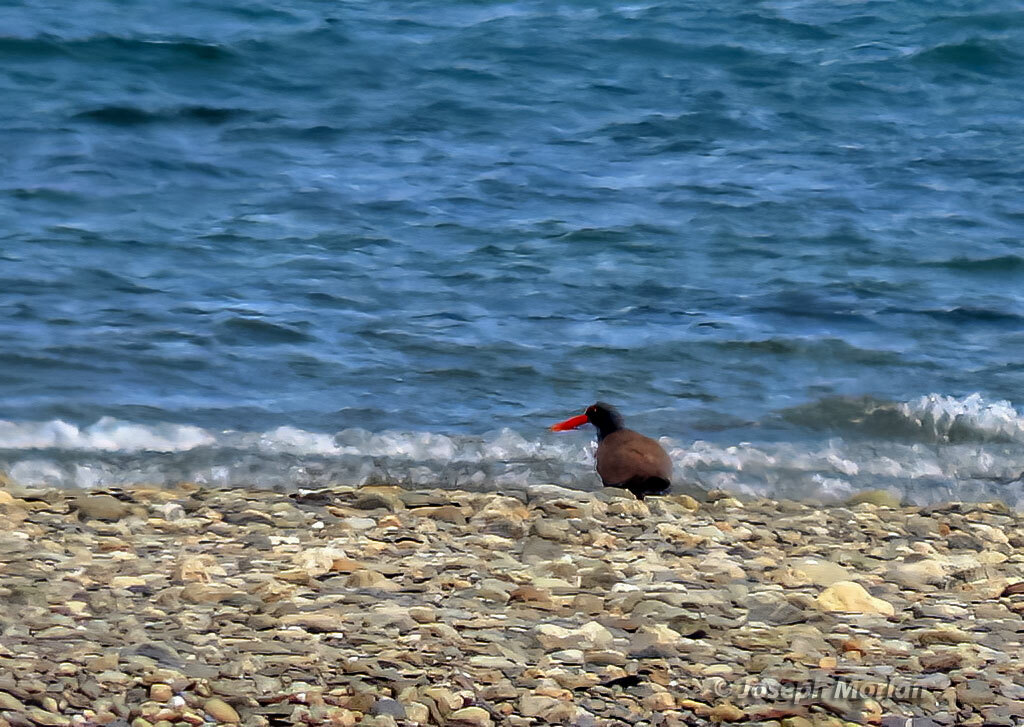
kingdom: Animalia
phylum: Chordata
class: Aves
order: Charadriiformes
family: Haematopodidae
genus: Haematopus
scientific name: Haematopus ater
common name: Blackish oystercatcher
